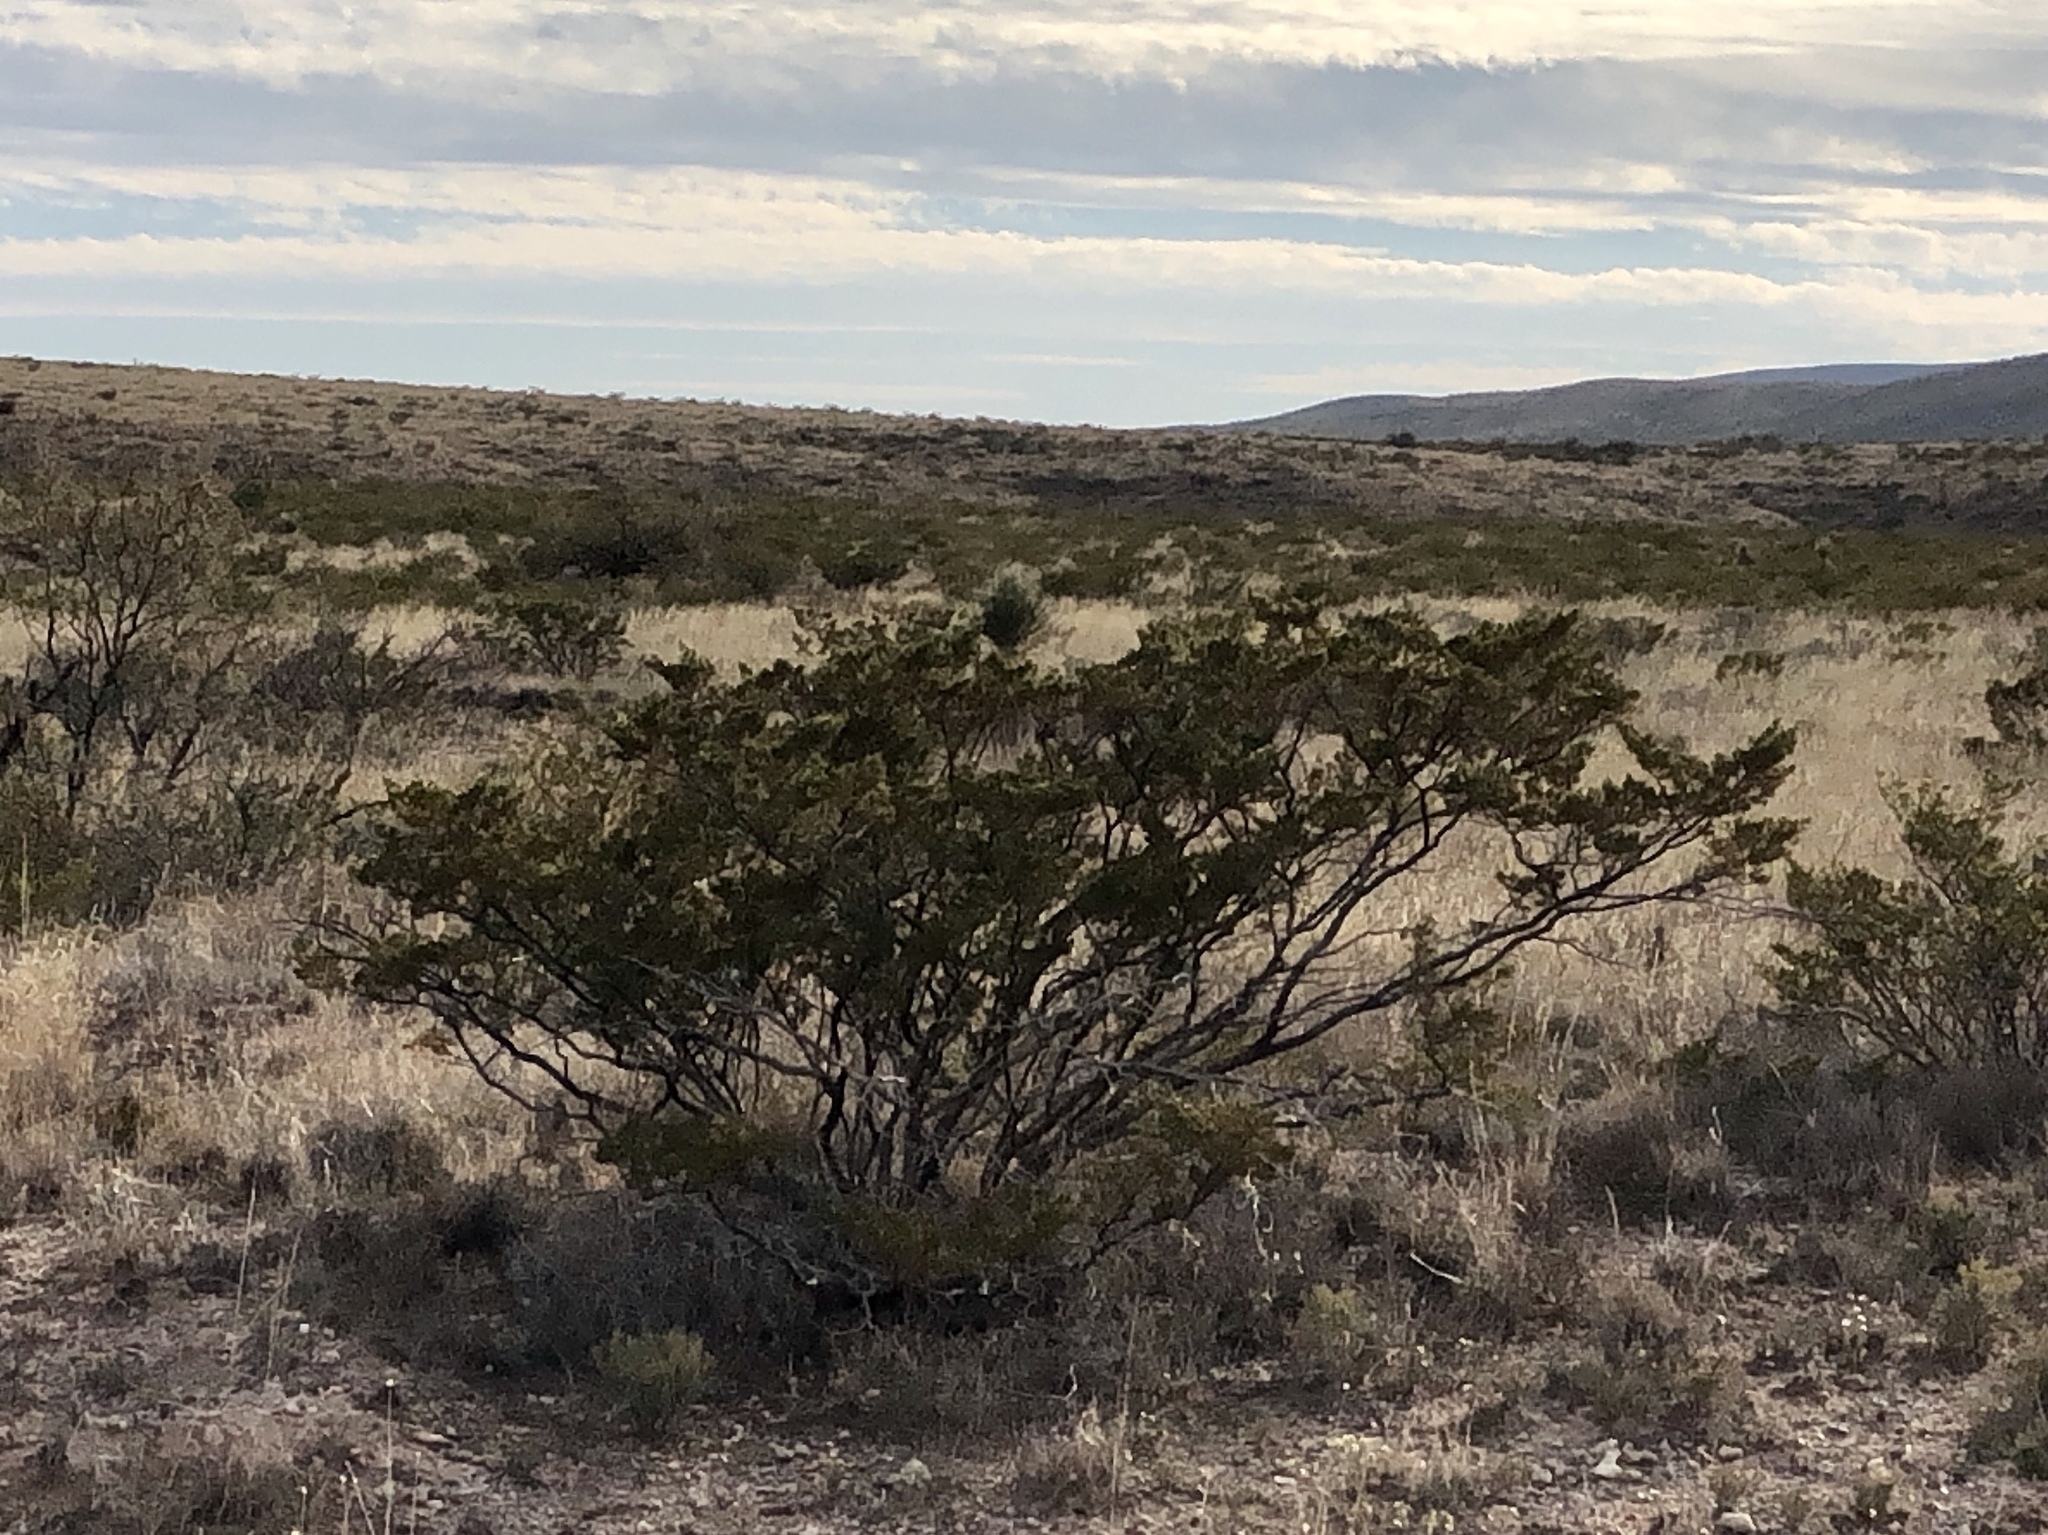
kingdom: Plantae
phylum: Tracheophyta
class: Magnoliopsida
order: Zygophyllales
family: Zygophyllaceae
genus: Larrea
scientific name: Larrea tridentata
